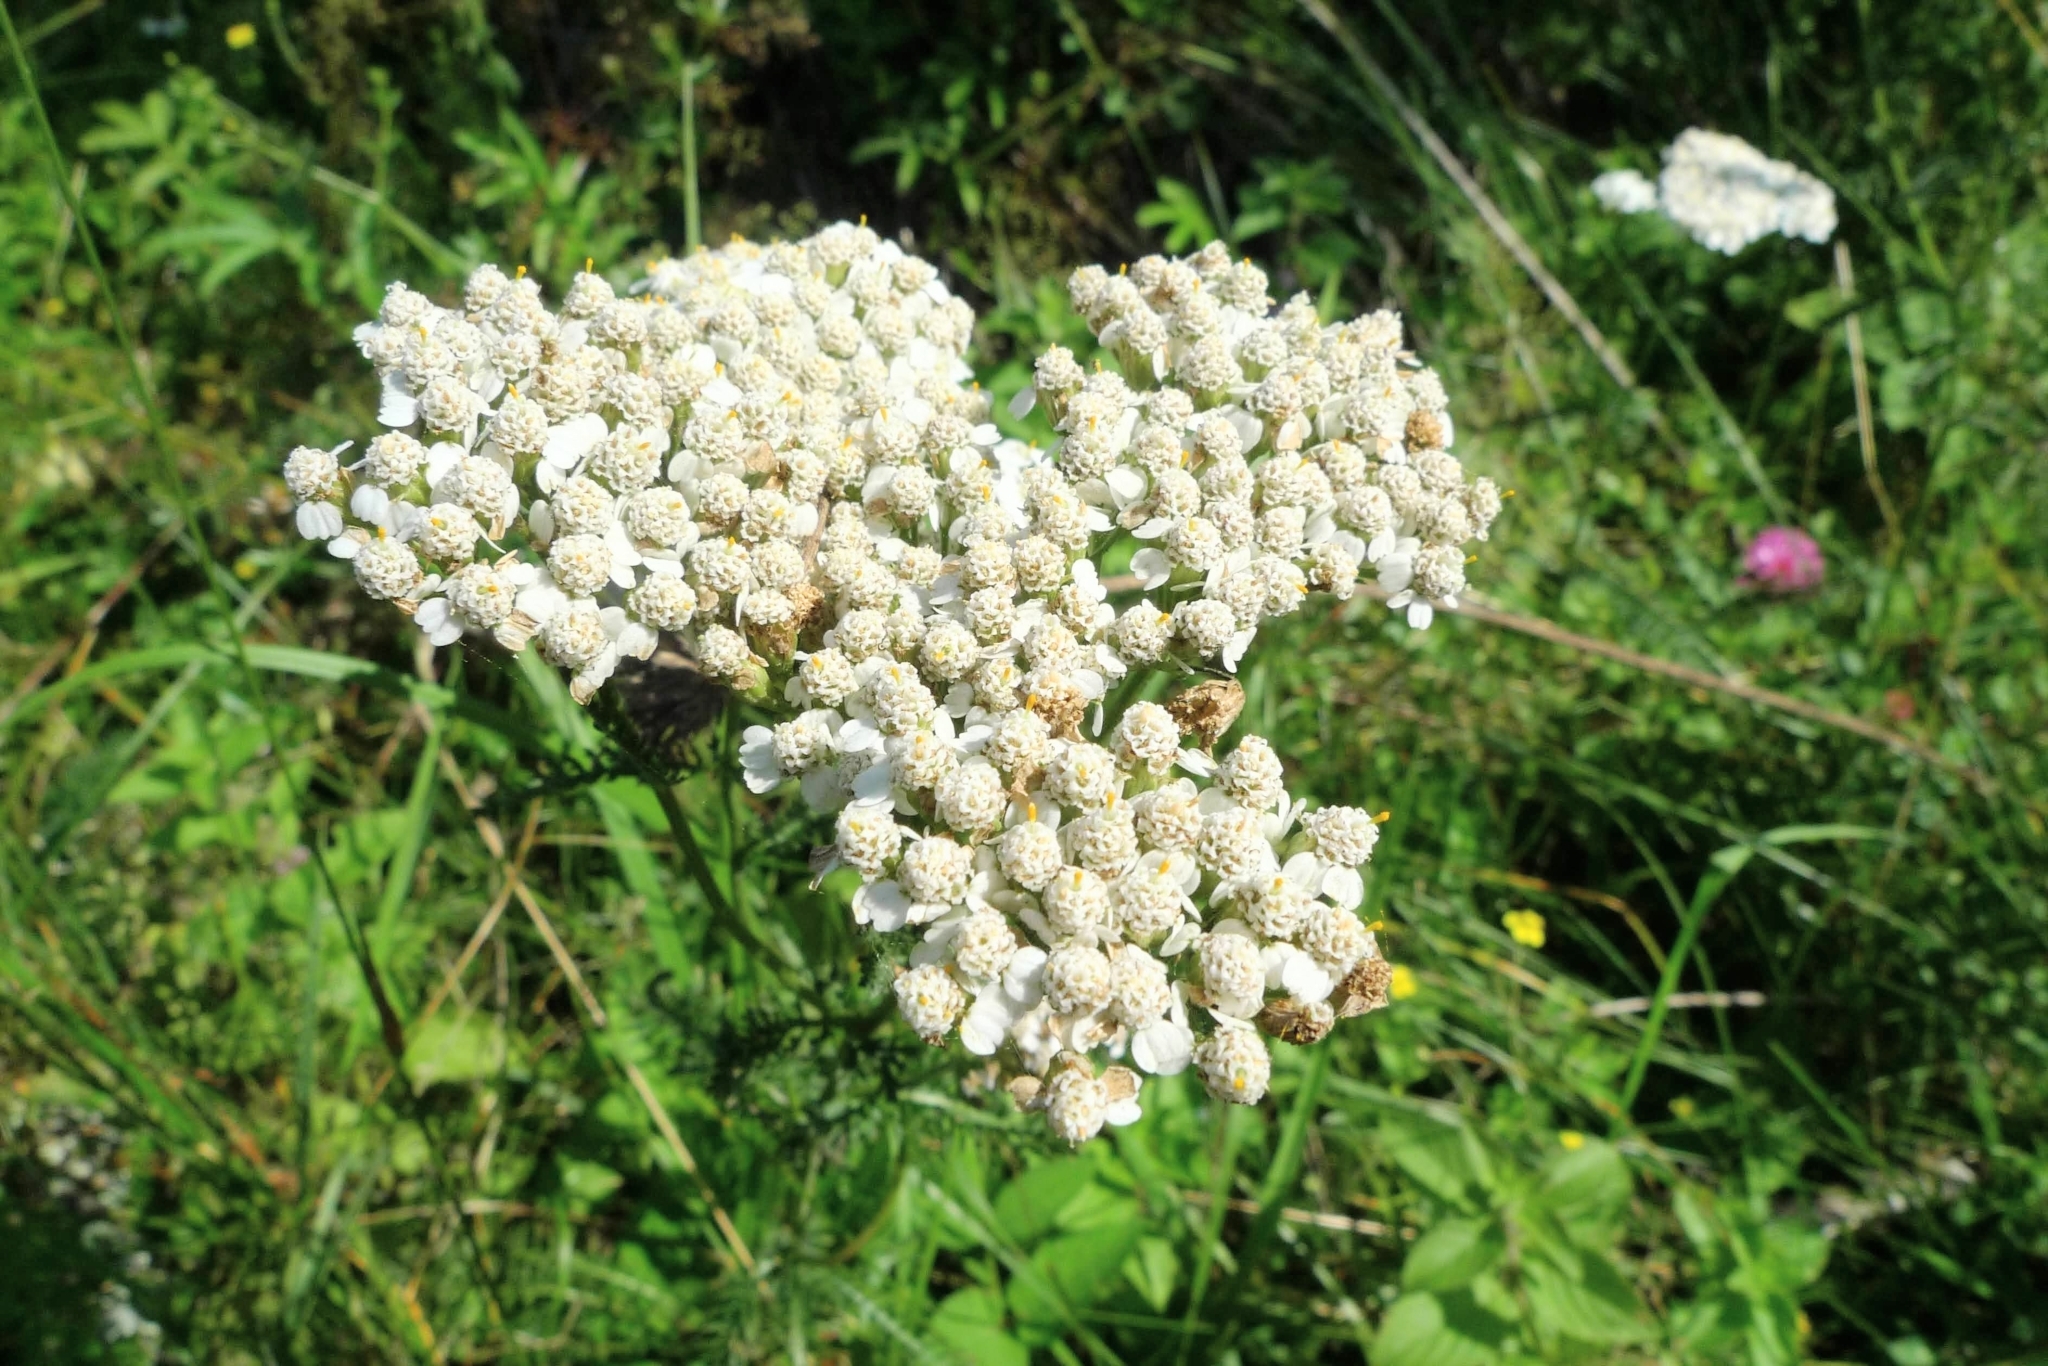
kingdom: Plantae
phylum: Tracheophyta
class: Magnoliopsida
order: Asterales
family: Asteraceae
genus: Achillea
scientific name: Achillea millefolium
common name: Yarrow
